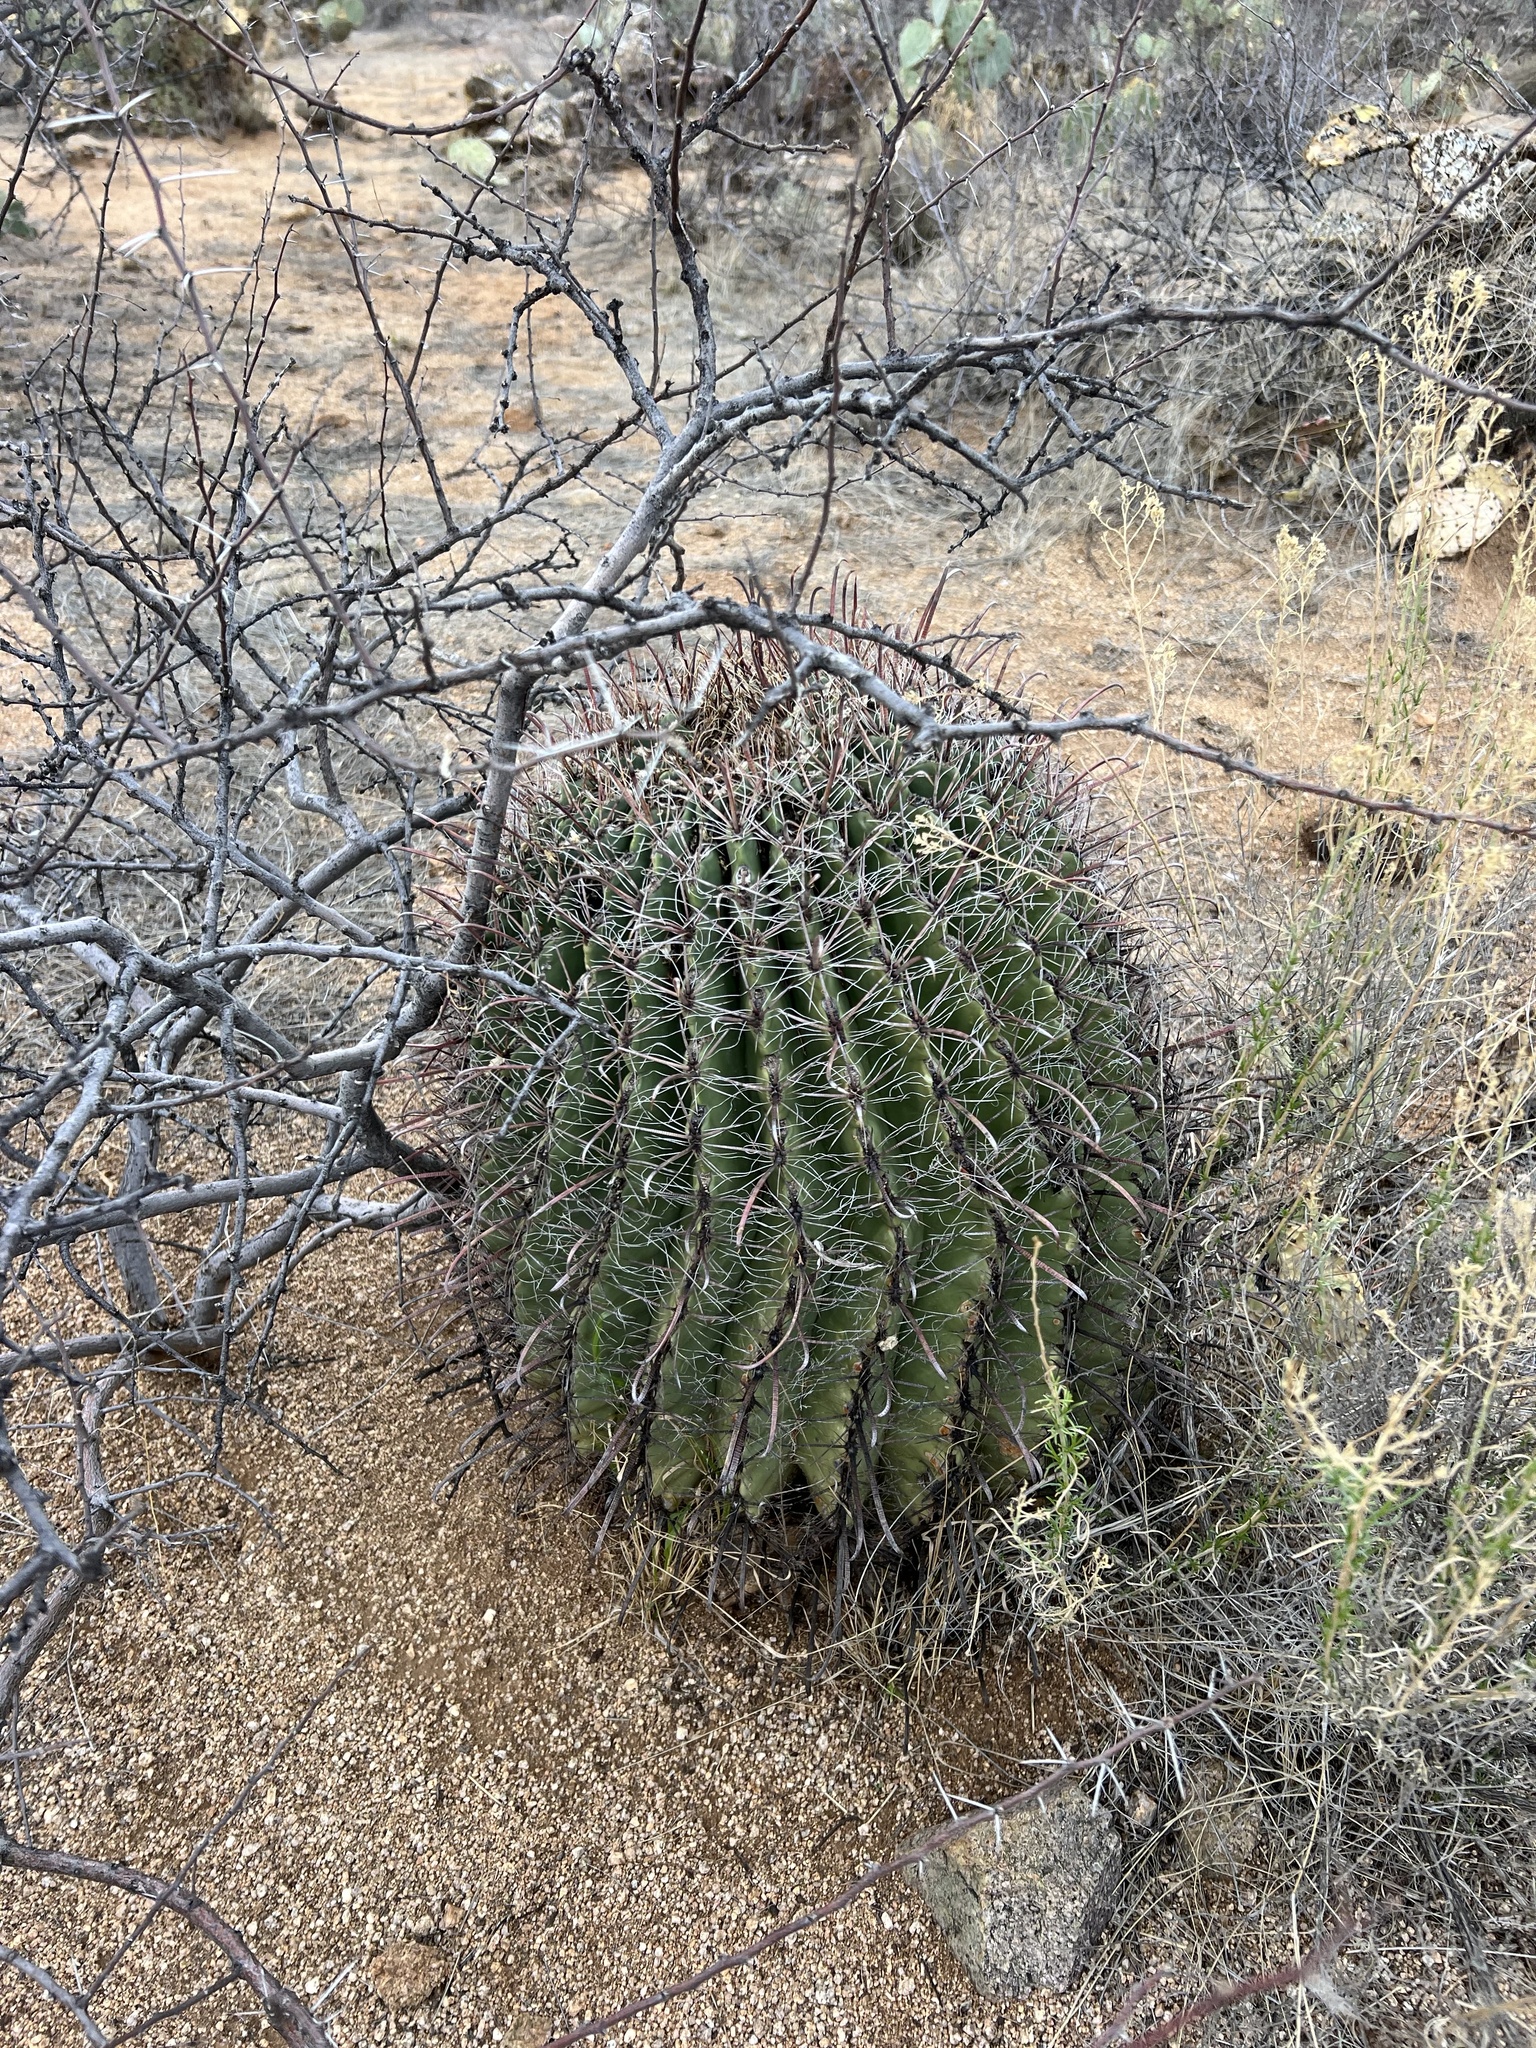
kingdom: Plantae
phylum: Tracheophyta
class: Magnoliopsida
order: Caryophyllales
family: Cactaceae
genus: Ferocactus
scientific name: Ferocactus wislizeni
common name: Candy barrel cactus
